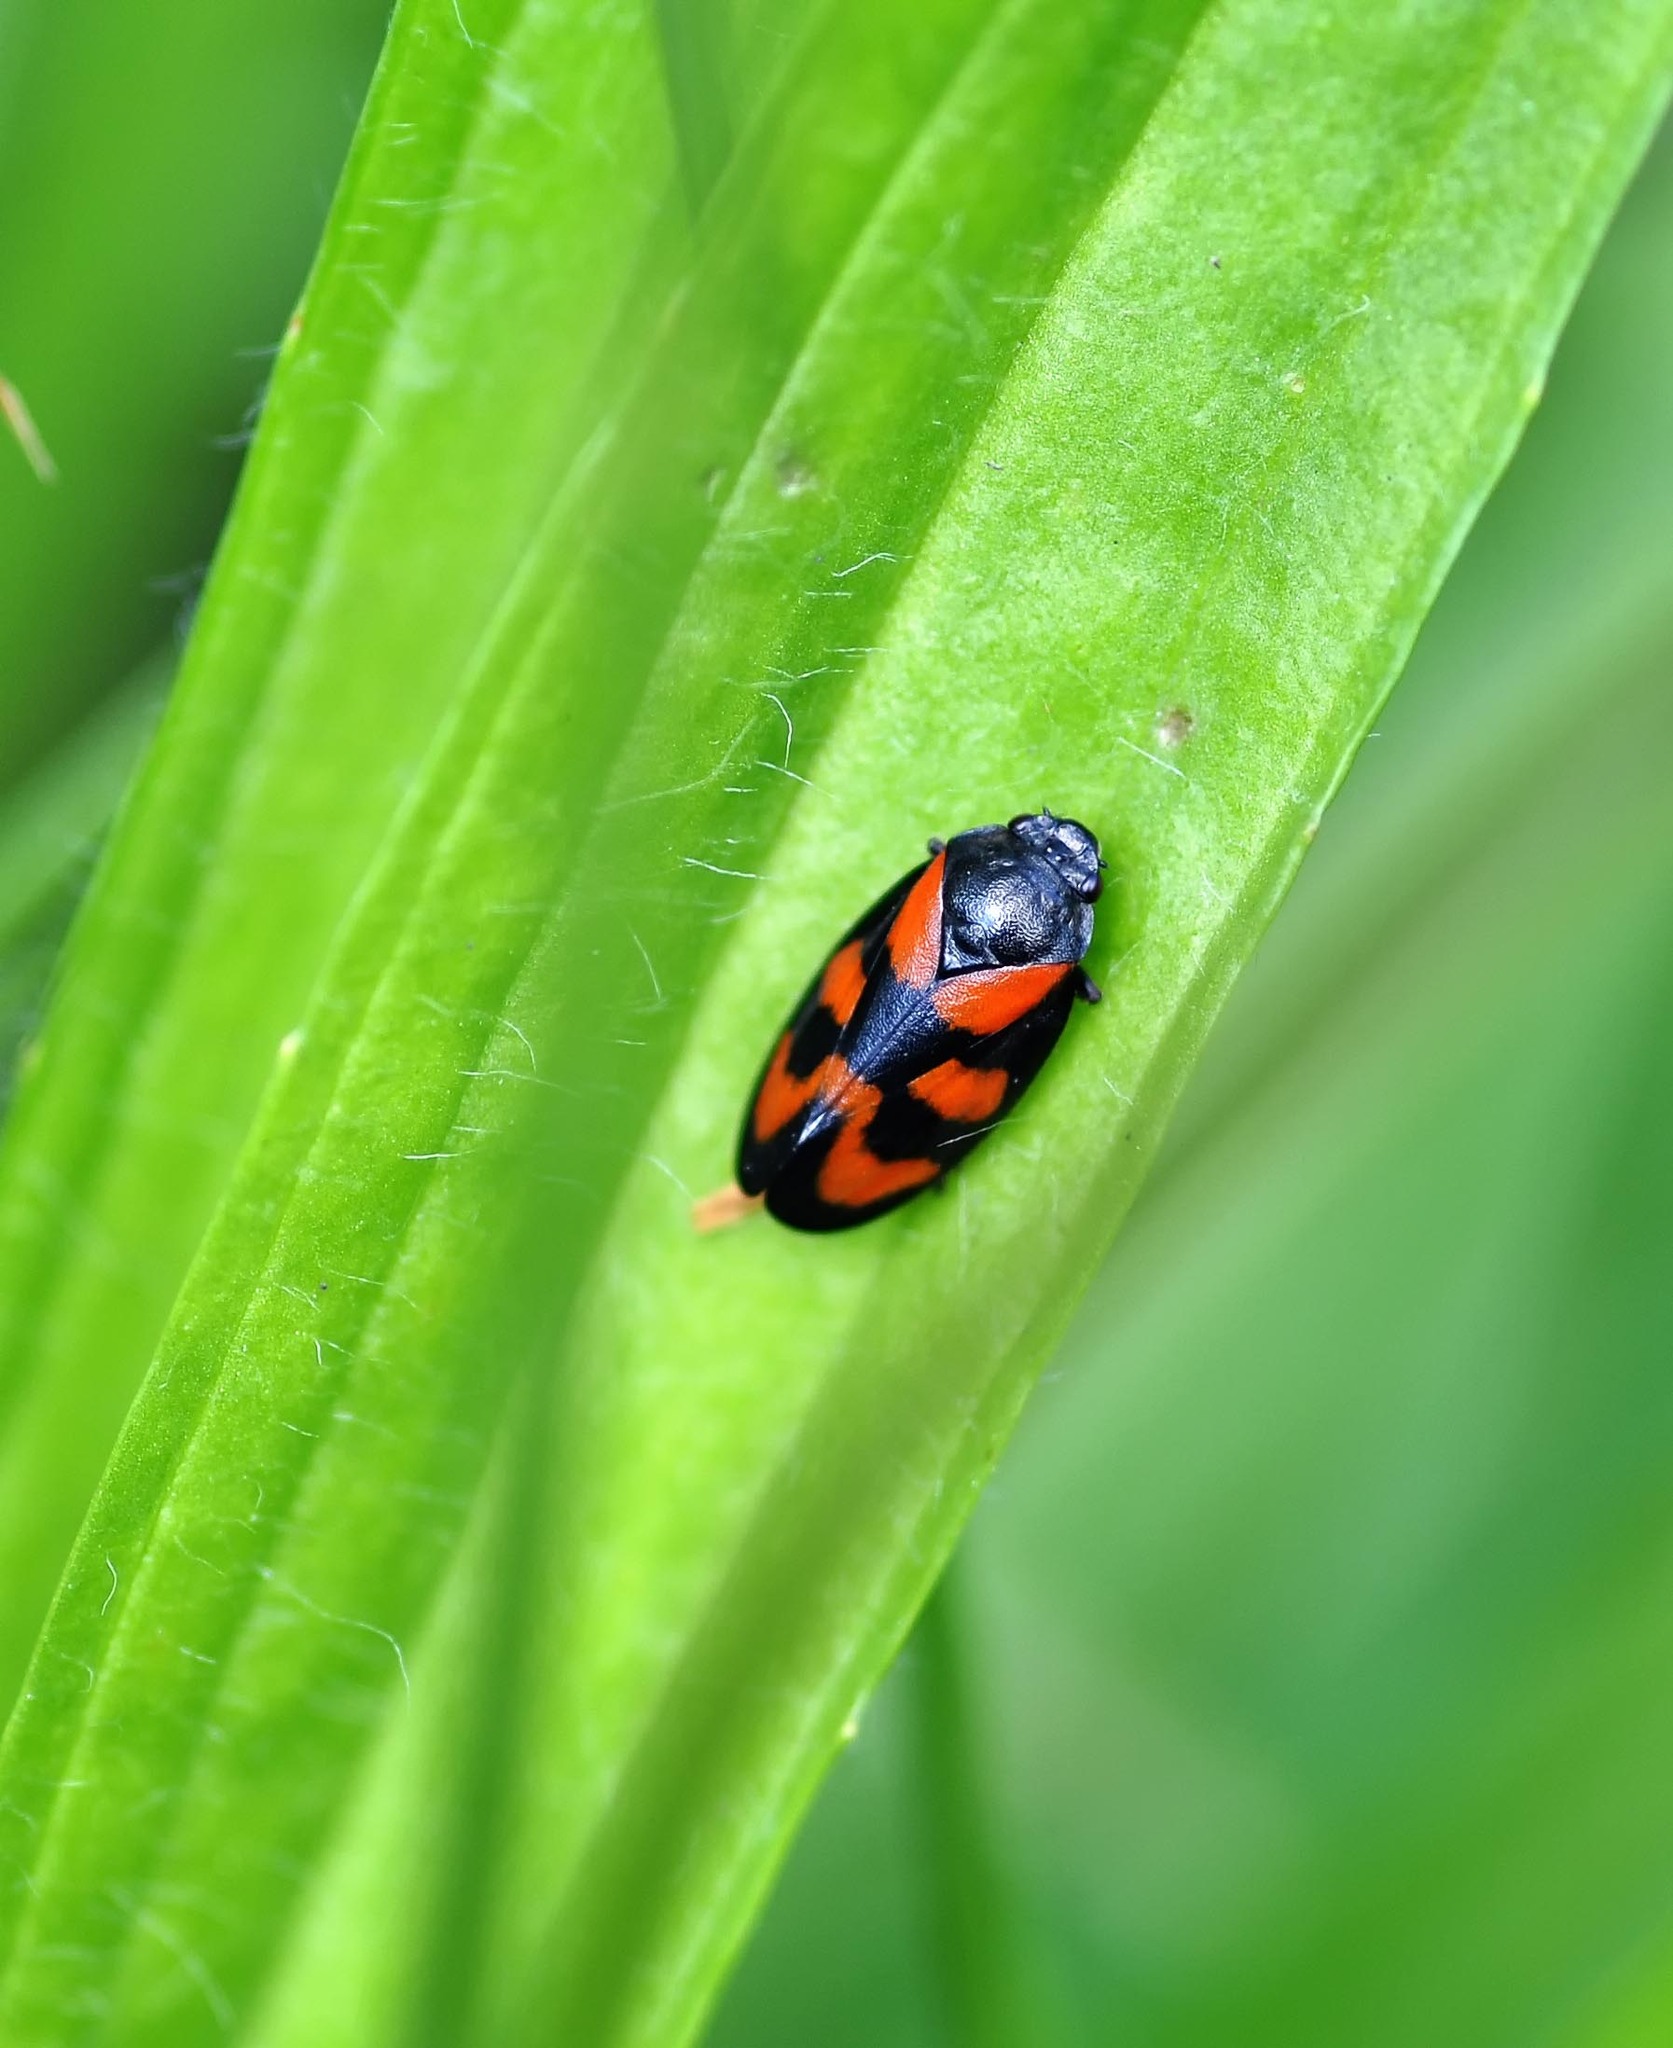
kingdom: Animalia
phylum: Arthropoda
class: Insecta
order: Hemiptera
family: Cercopidae
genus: Cercopis
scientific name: Cercopis vulnerata
